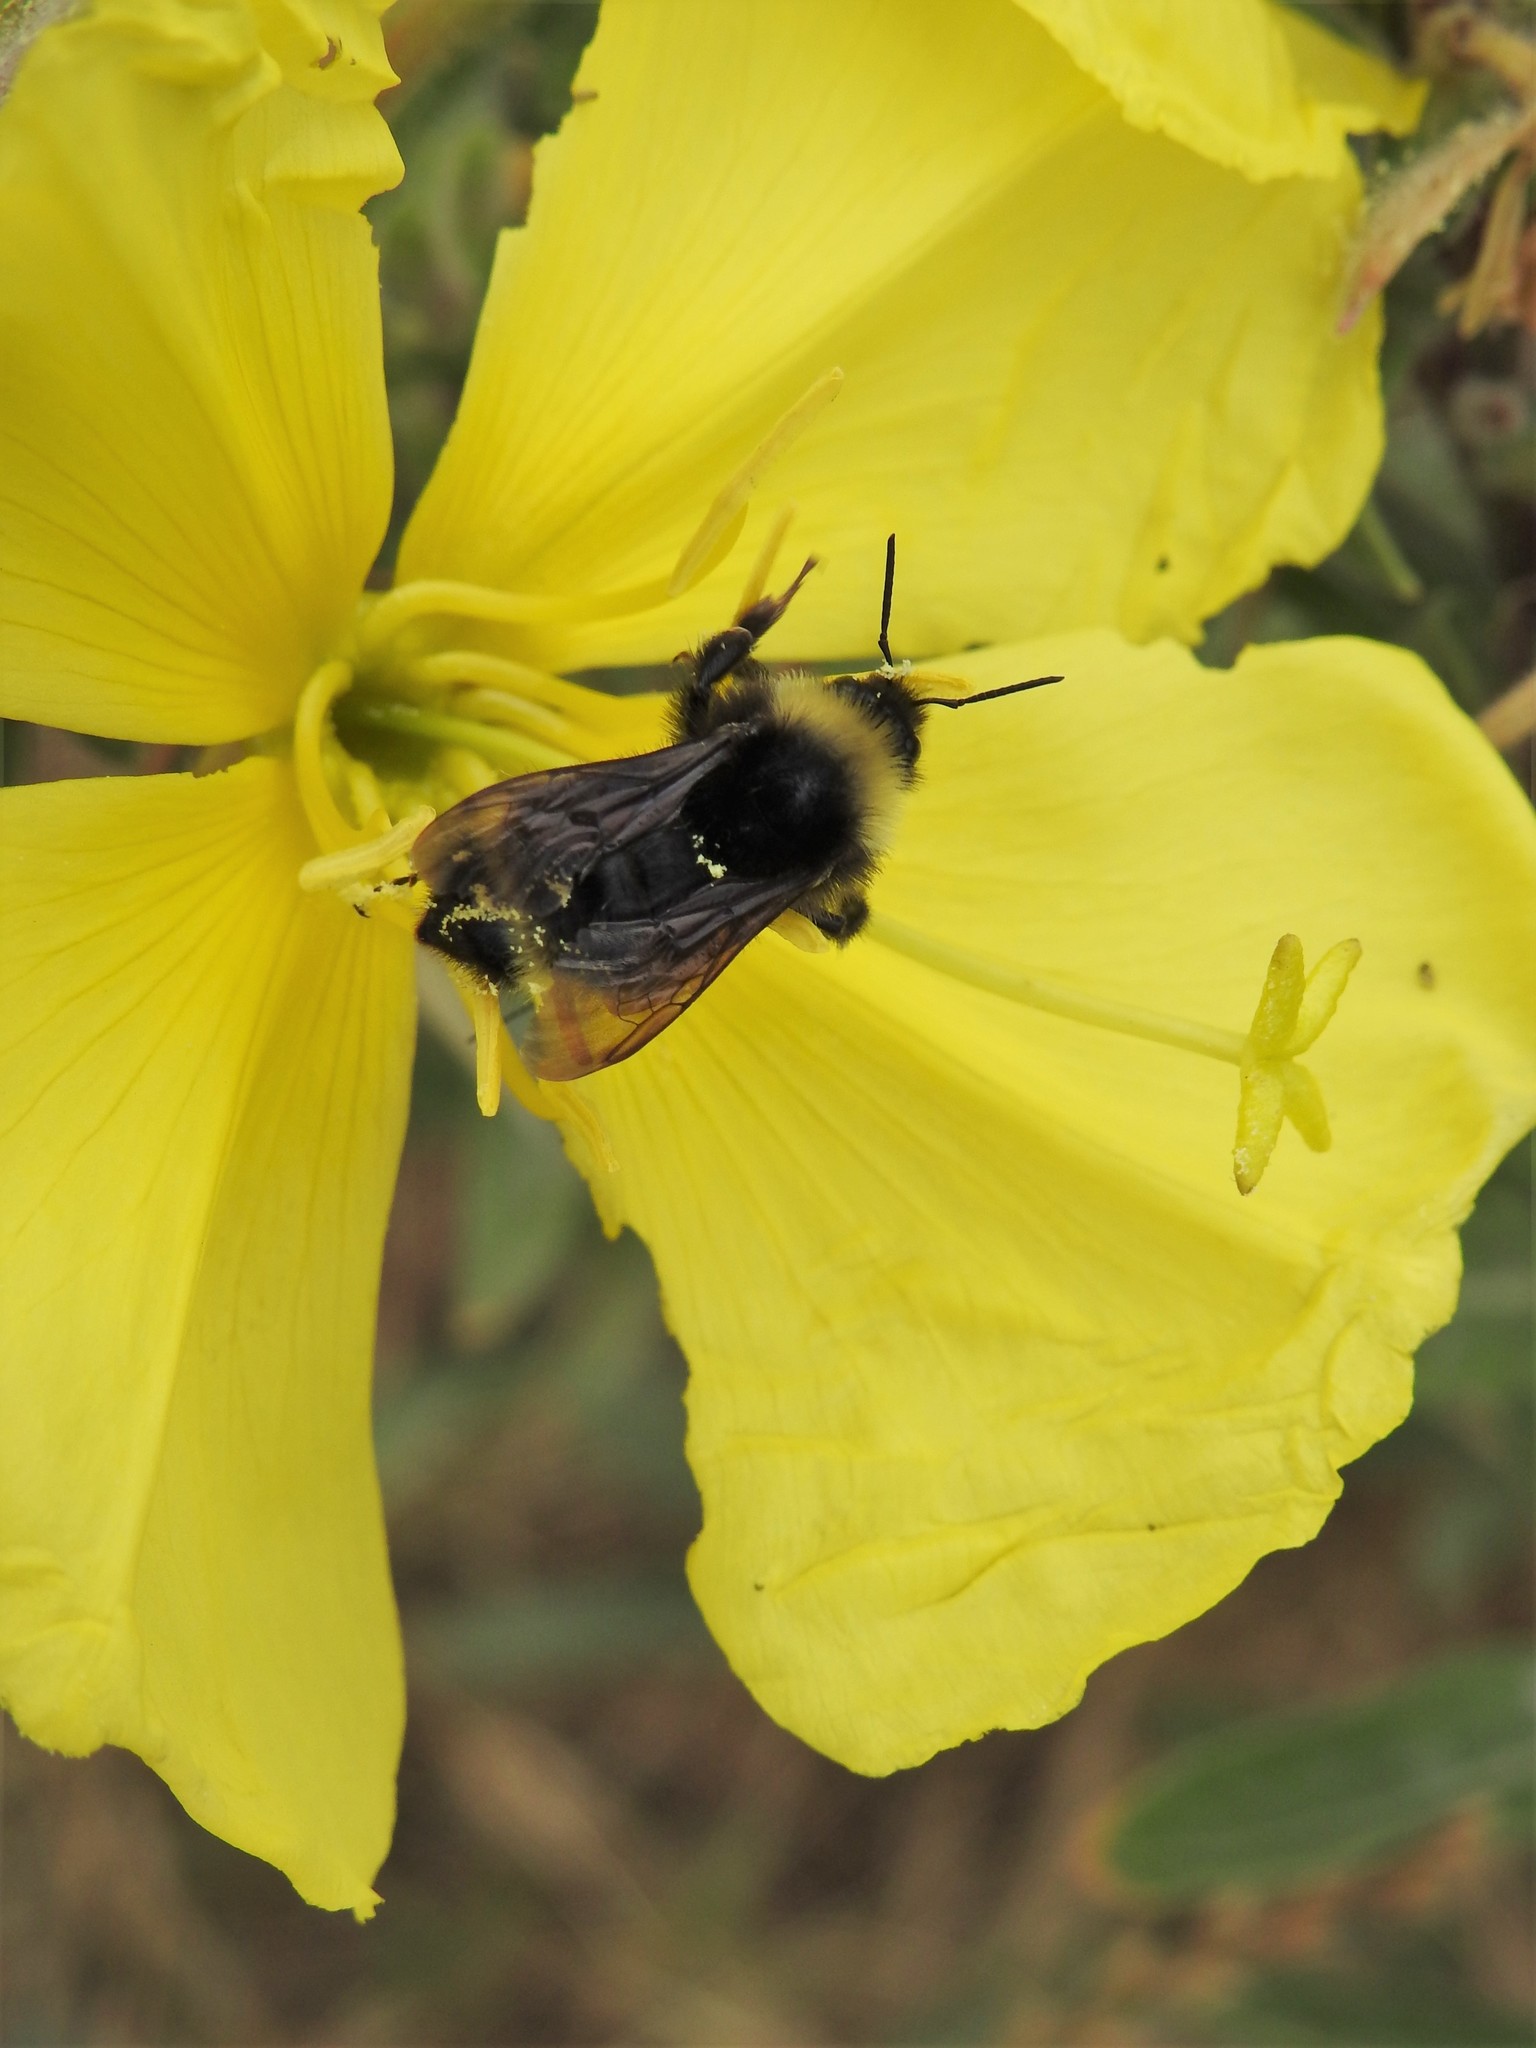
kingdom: Animalia
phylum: Arthropoda
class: Insecta
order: Hymenoptera
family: Apidae
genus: Bombus
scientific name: Bombus californicus
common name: California bumble bee
